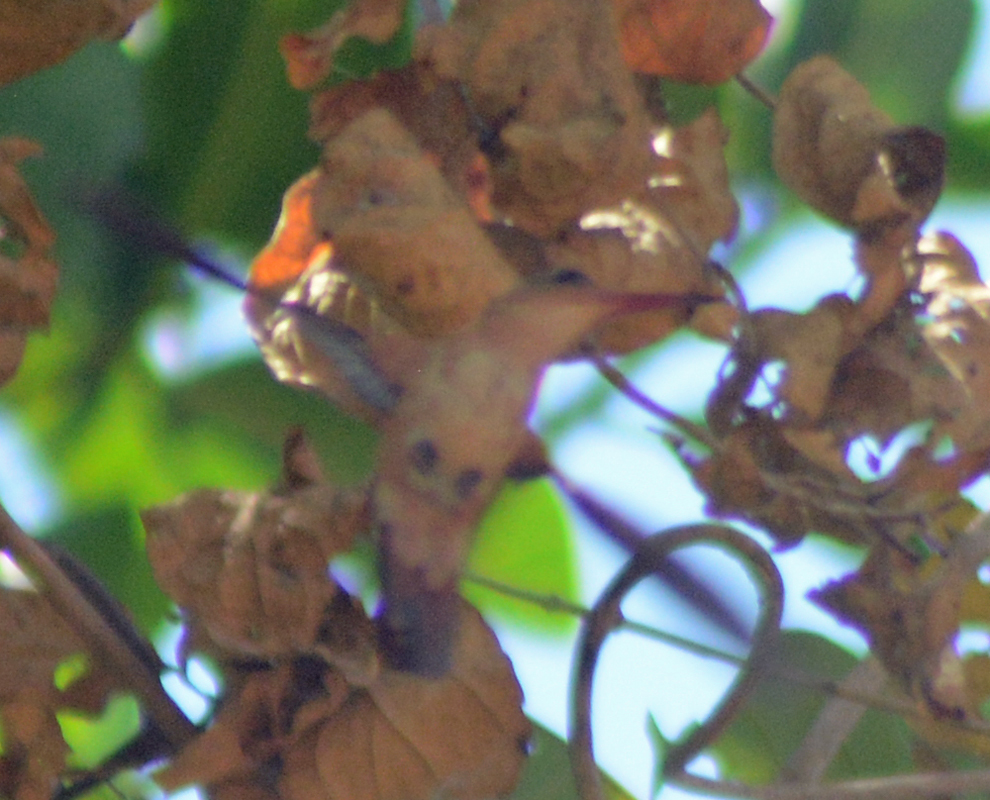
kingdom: Animalia
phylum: Chordata
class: Aves
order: Apodiformes
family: Trochilidae
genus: Amazilia
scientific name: Amazilia rutila
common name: Cinnamon hummingbird
